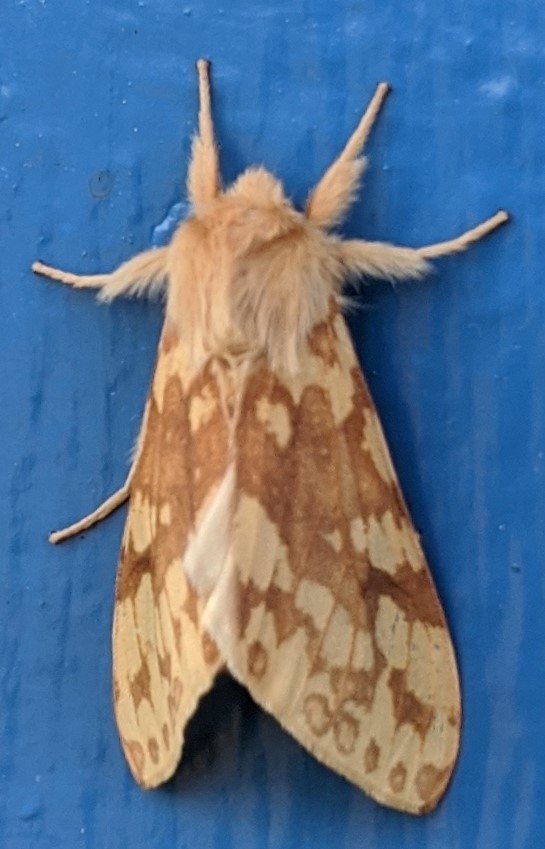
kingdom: Animalia
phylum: Arthropoda
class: Insecta
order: Lepidoptera
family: Erebidae
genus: Lophocampa
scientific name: Lophocampa maculata
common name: Spotted tussock moth
